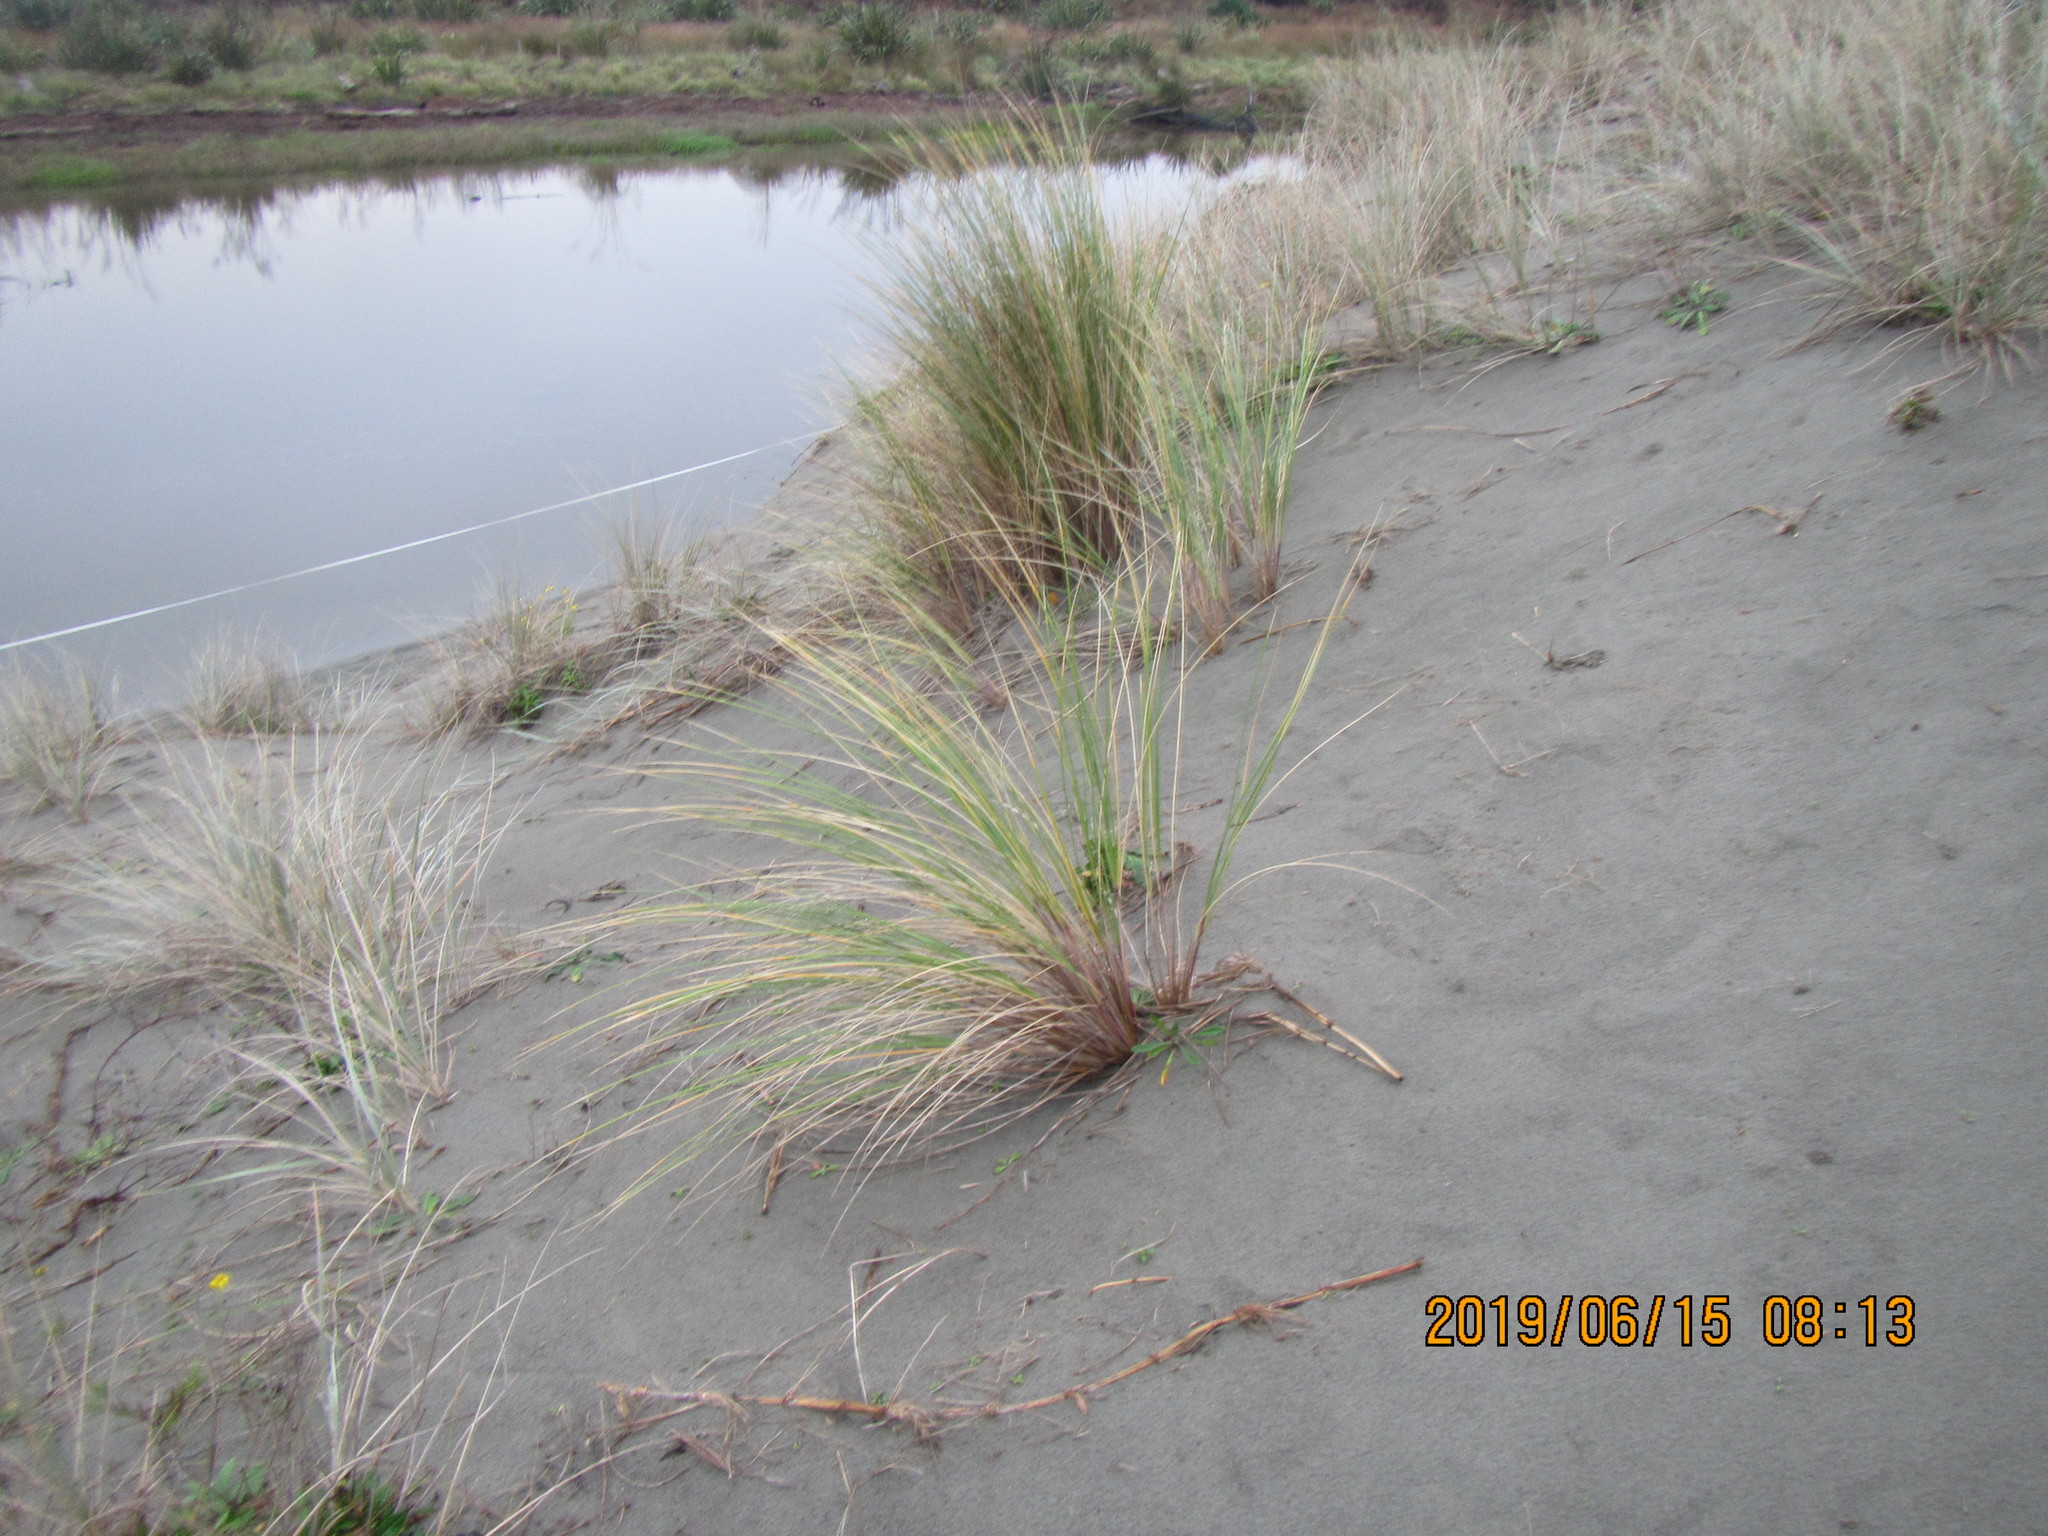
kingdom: Plantae
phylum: Tracheophyta
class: Liliopsida
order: Poales
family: Poaceae
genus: Calamagrostis
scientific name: Calamagrostis arenaria
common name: European beachgrass
